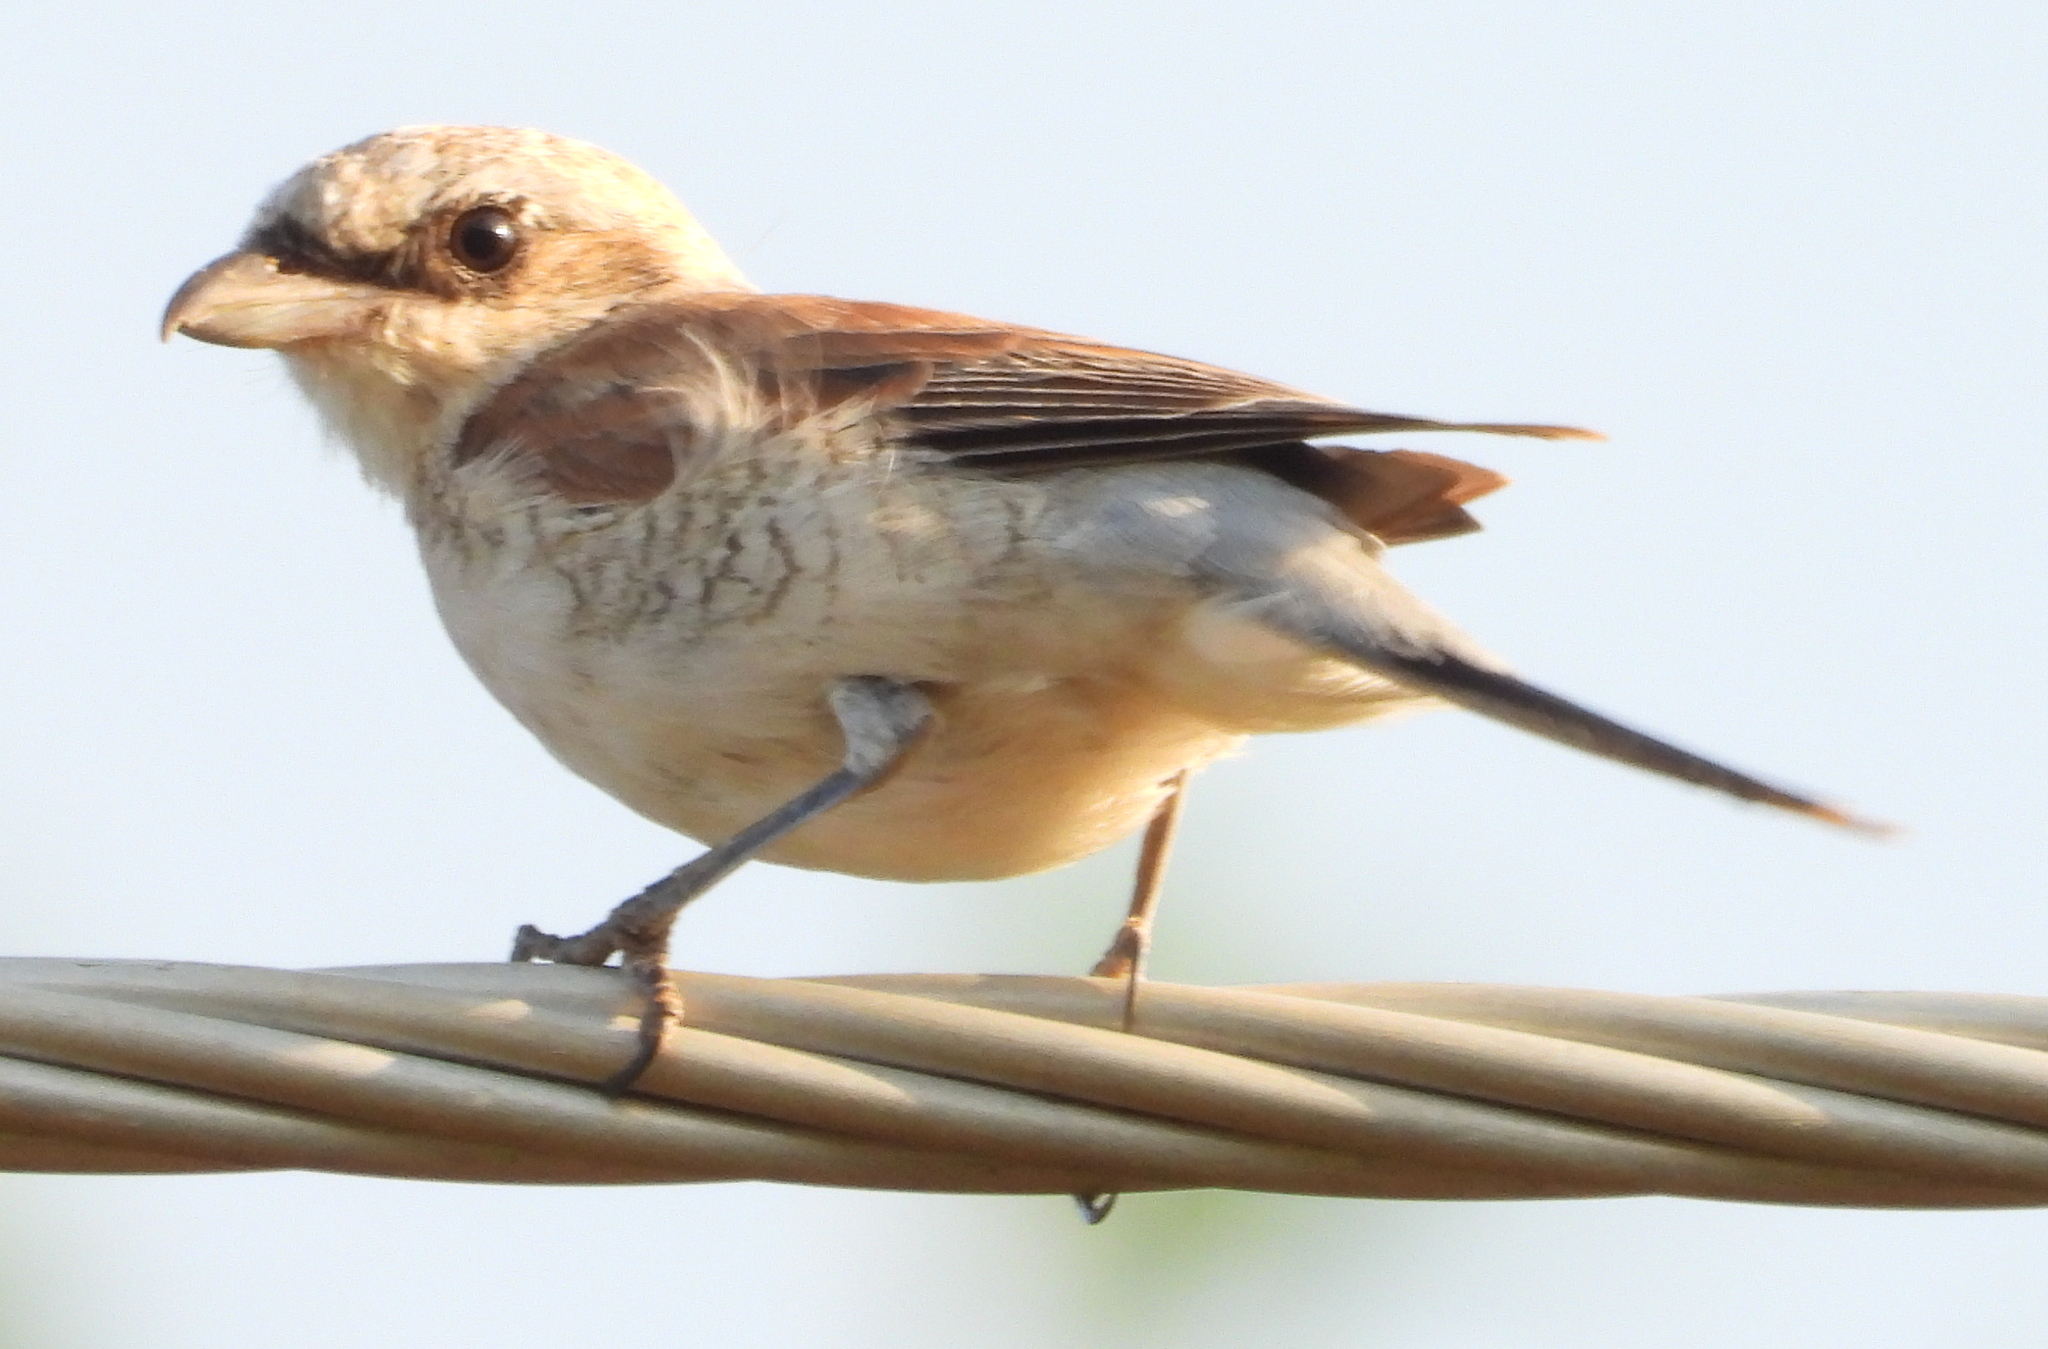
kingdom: Animalia
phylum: Chordata
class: Aves
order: Passeriformes
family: Laniidae
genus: Lanius
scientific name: Lanius collurio
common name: Red-backed shrike
